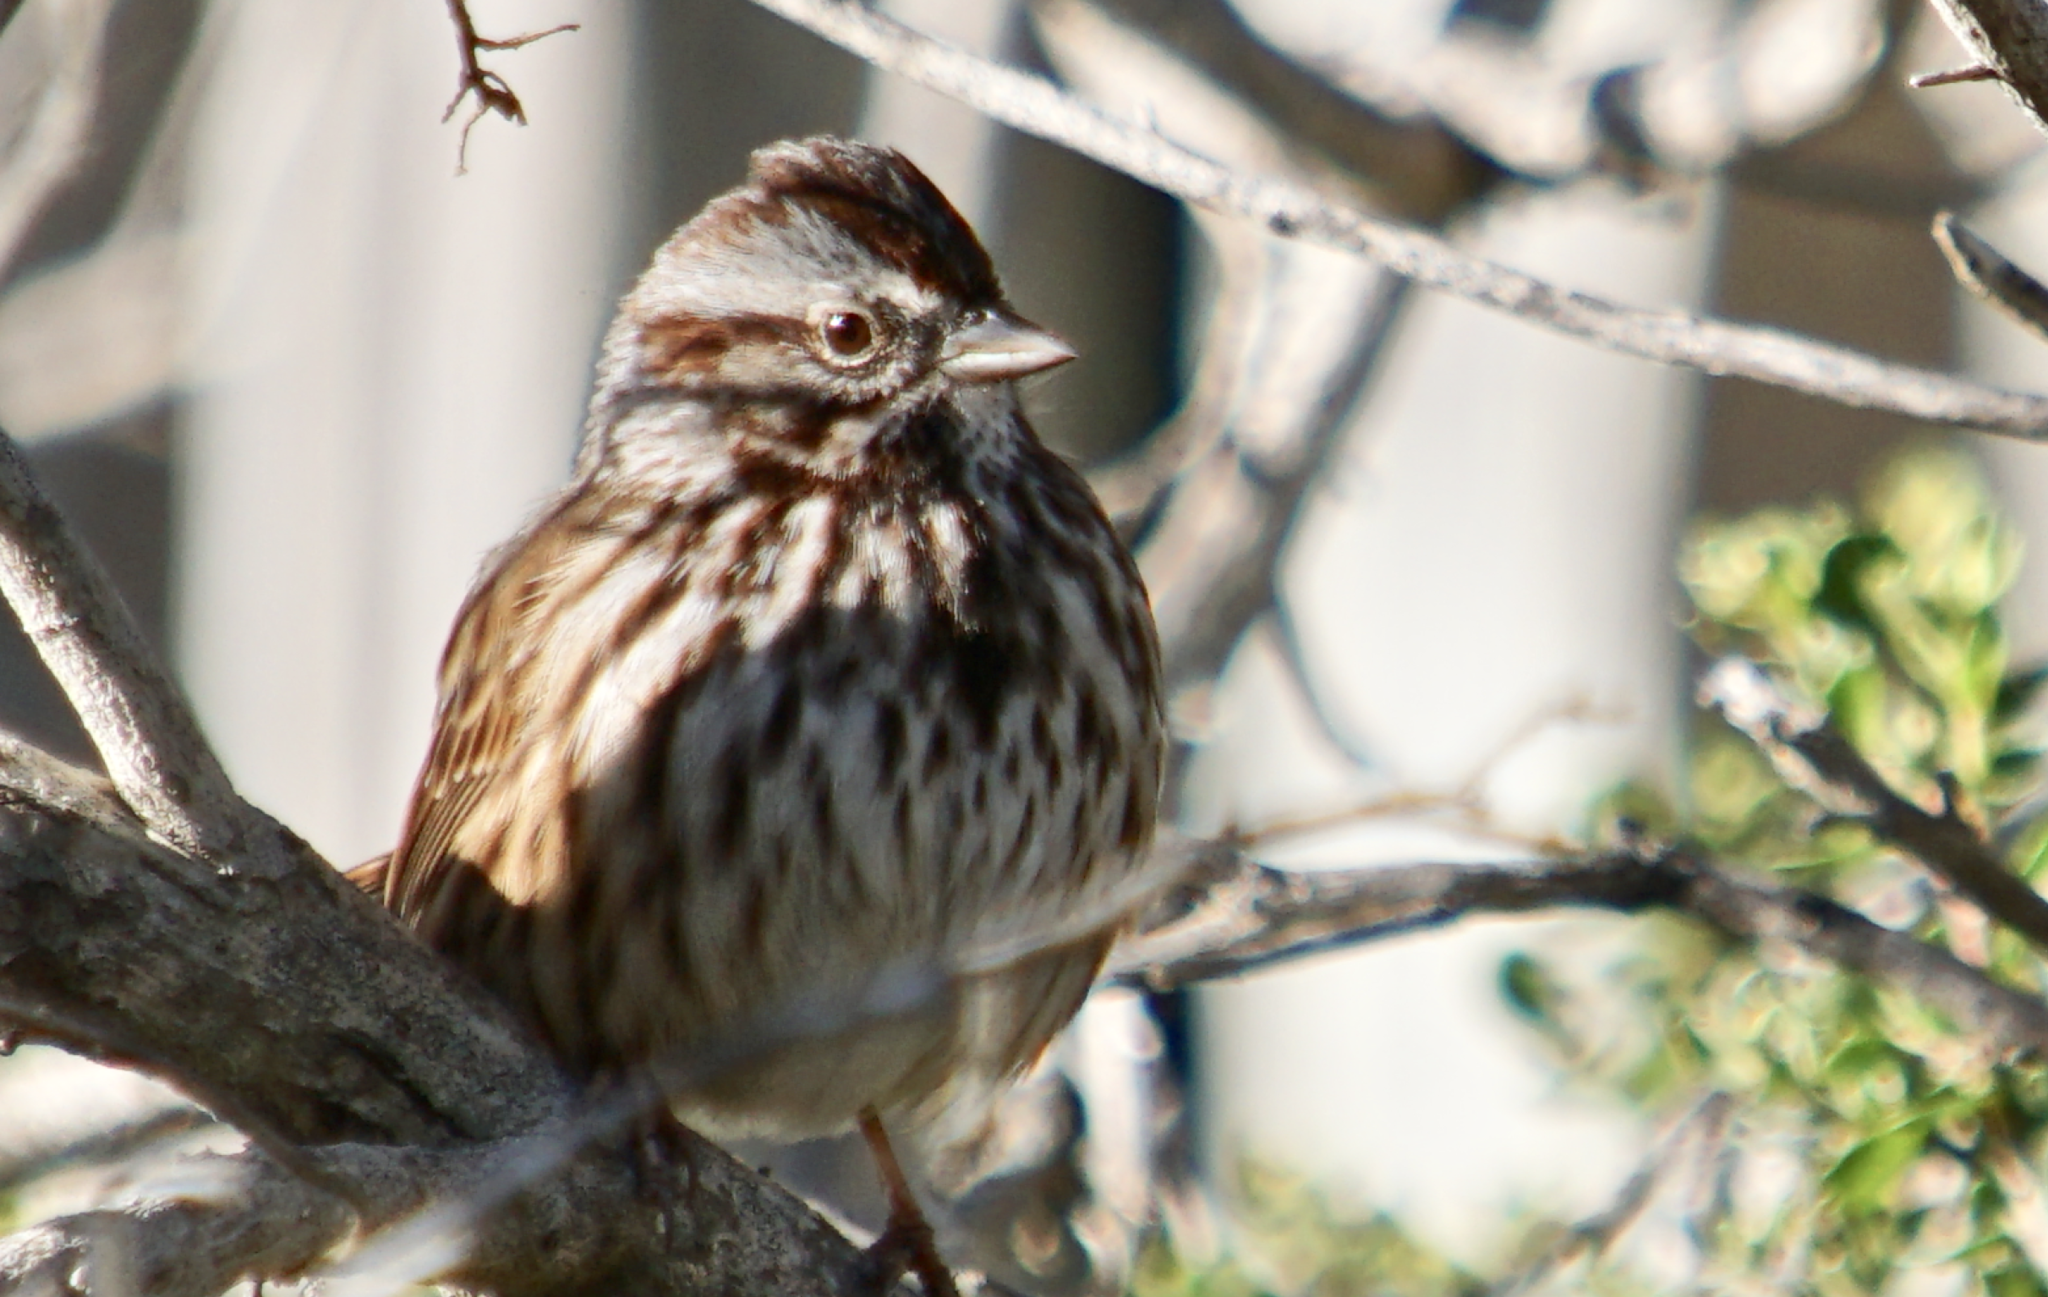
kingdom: Animalia
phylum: Chordata
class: Aves
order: Passeriformes
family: Passerellidae
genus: Melospiza
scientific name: Melospiza melodia
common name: Song sparrow
